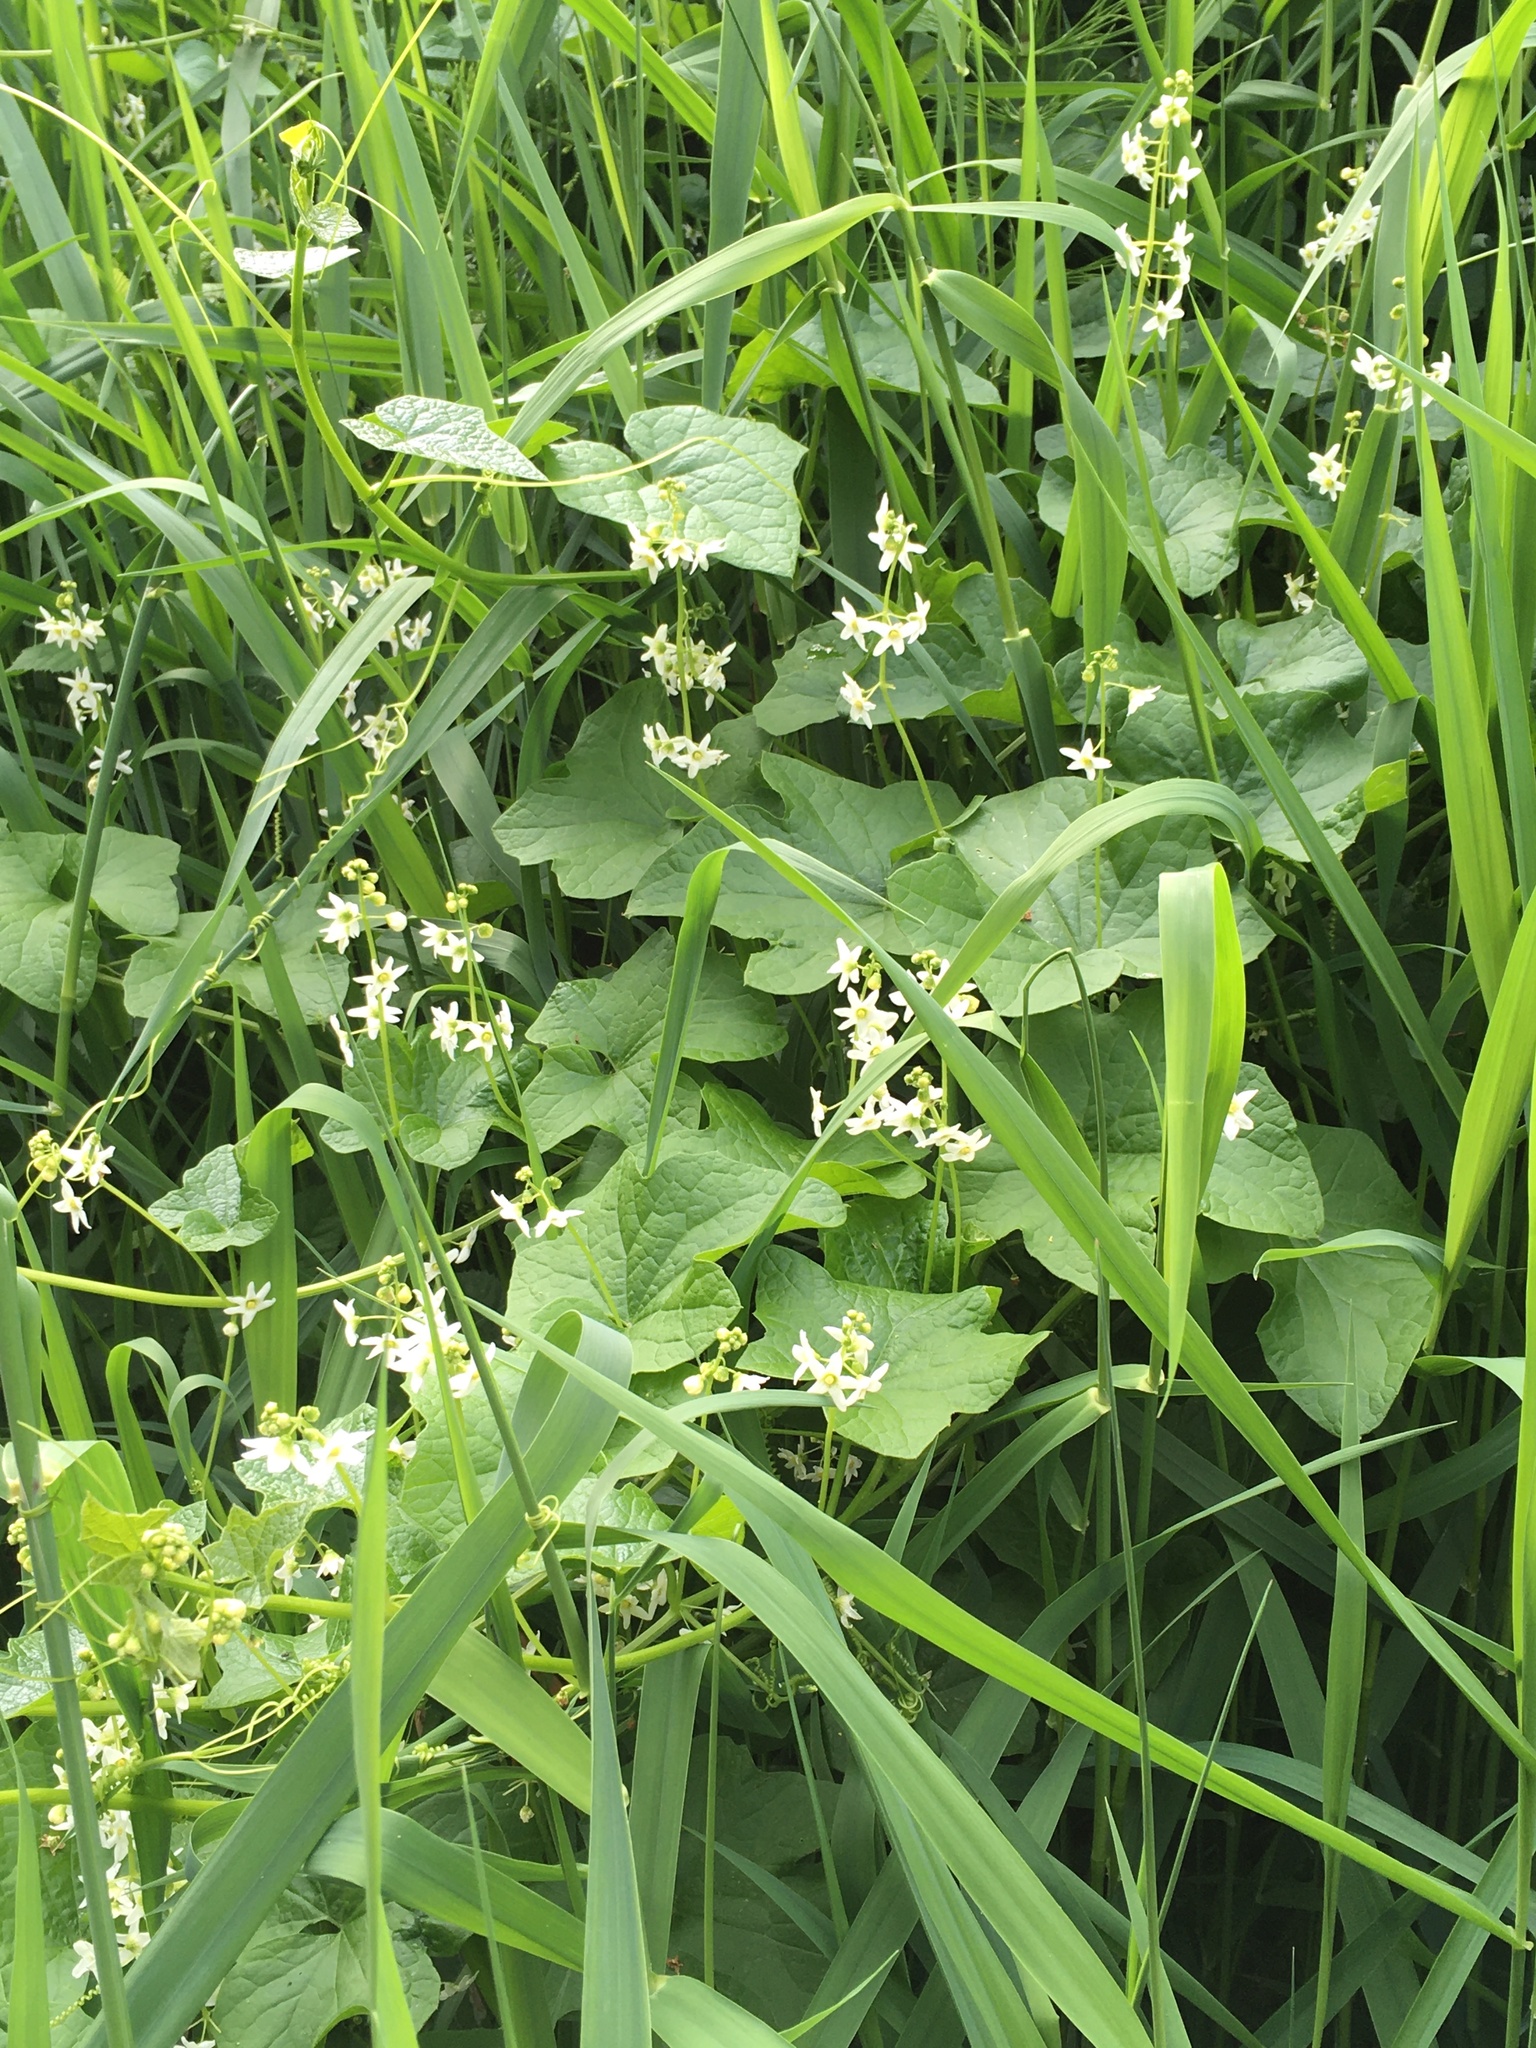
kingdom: Plantae
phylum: Tracheophyta
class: Magnoliopsida
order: Cucurbitales
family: Cucurbitaceae
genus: Marah
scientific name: Marah oregana
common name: Coastal manroot
